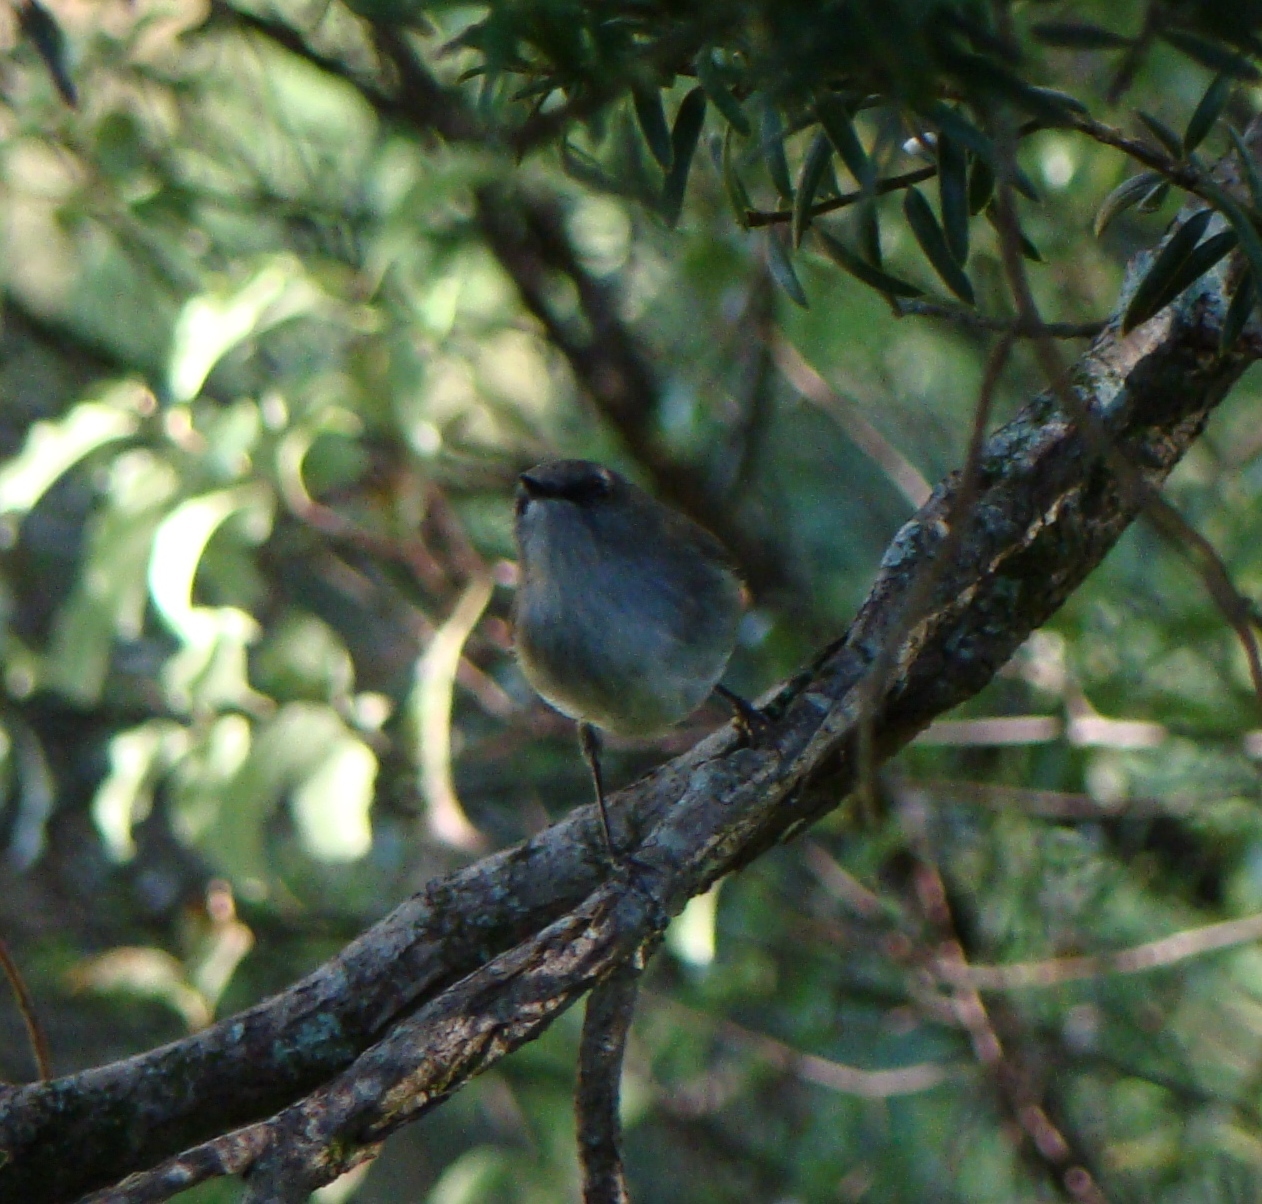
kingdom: Animalia
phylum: Chordata
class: Aves
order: Passeriformes
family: Acanthizidae
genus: Gerygone
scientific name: Gerygone igata
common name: Grey gerygone
